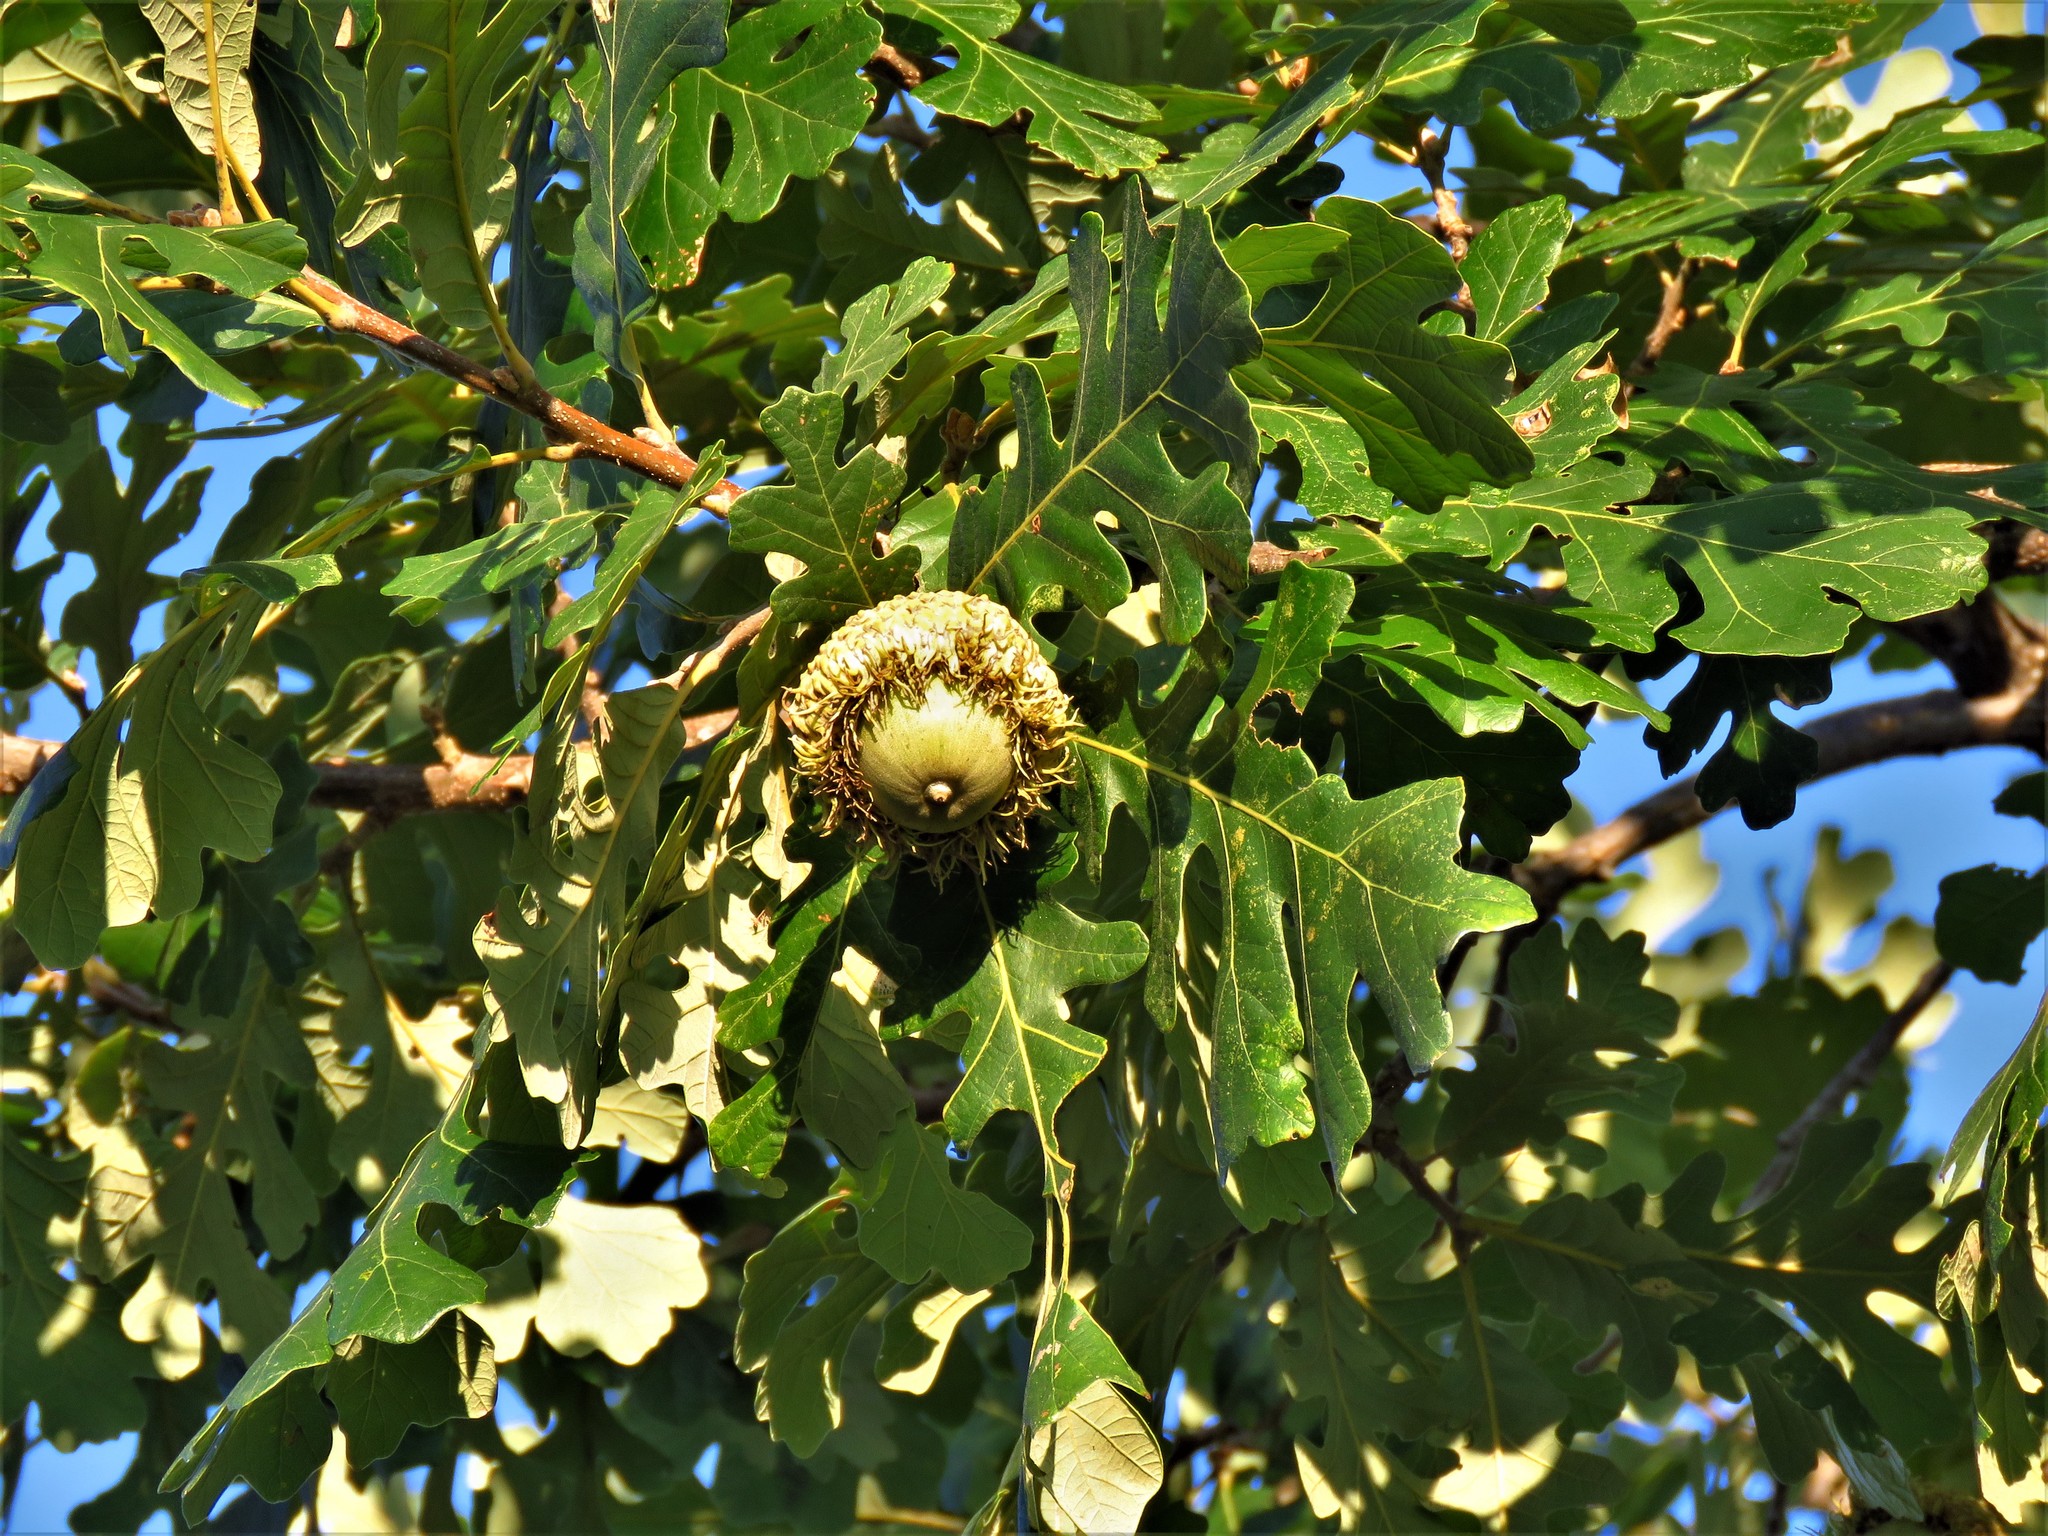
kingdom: Plantae
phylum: Tracheophyta
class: Magnoliopsida
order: Fagales
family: Fagaceae
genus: Quercus
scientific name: Quercus macrocarpa
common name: Bur oak
